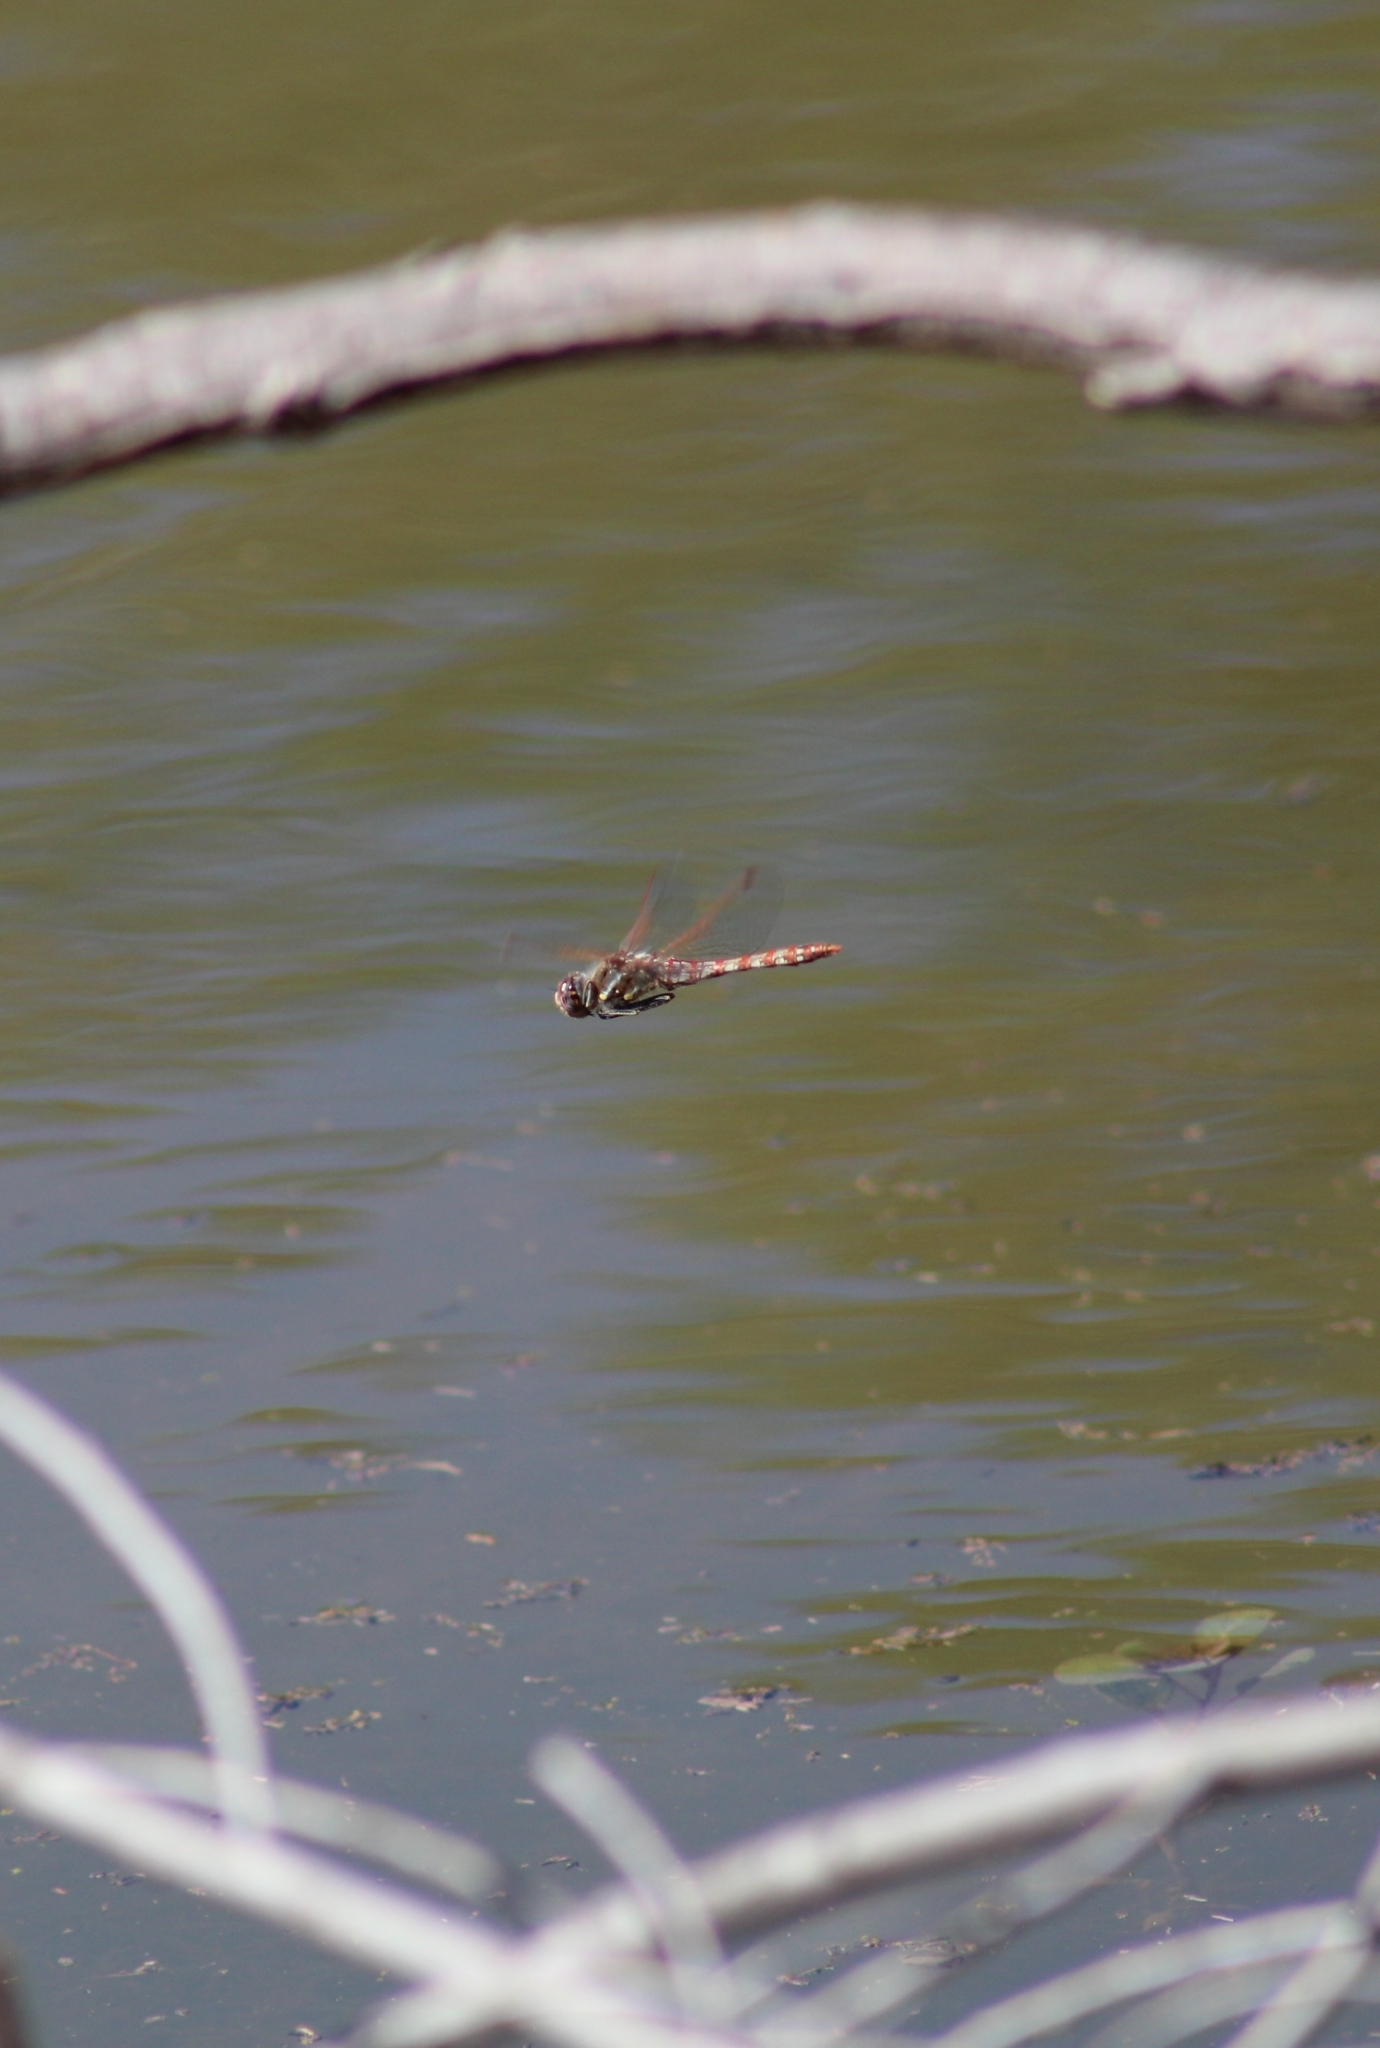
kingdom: Animalia
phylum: Arthropoda
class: Insecta
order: Odonata
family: Libellulidae
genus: Sympetrum
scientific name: Sympetrum corruptum
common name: Variegated meadowhawk
